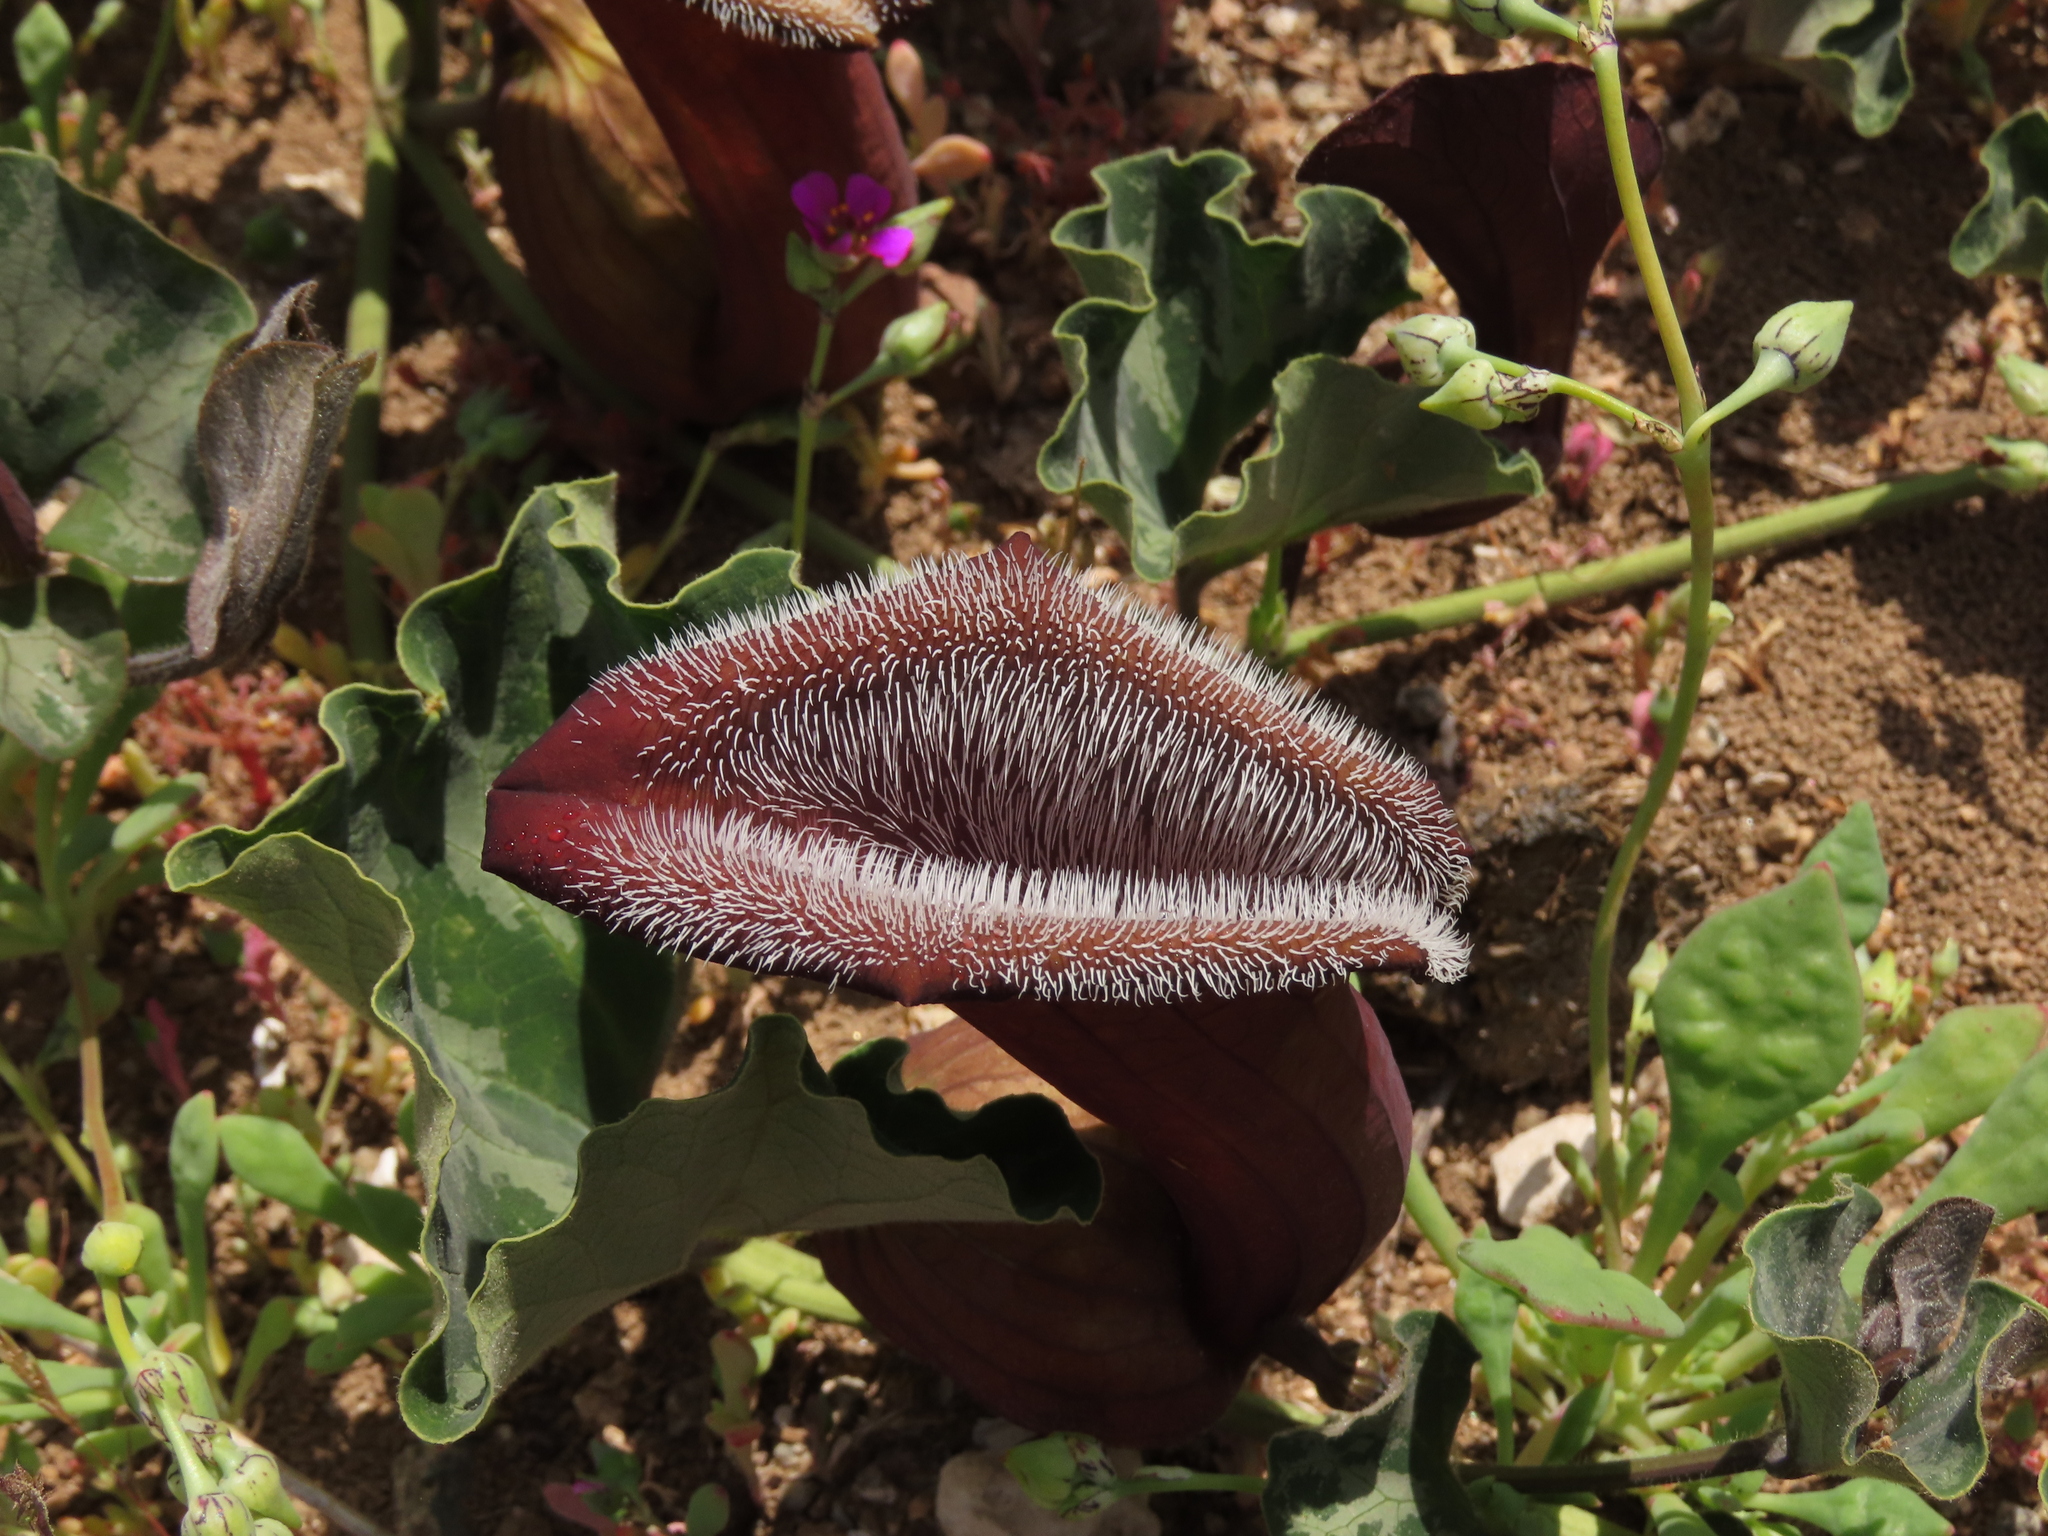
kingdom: Plantae
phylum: Tracheophyta
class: Magnoliopsida
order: Piperales
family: Aristolochiaceae
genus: Aristolochia
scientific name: Aristolochia chilensis
